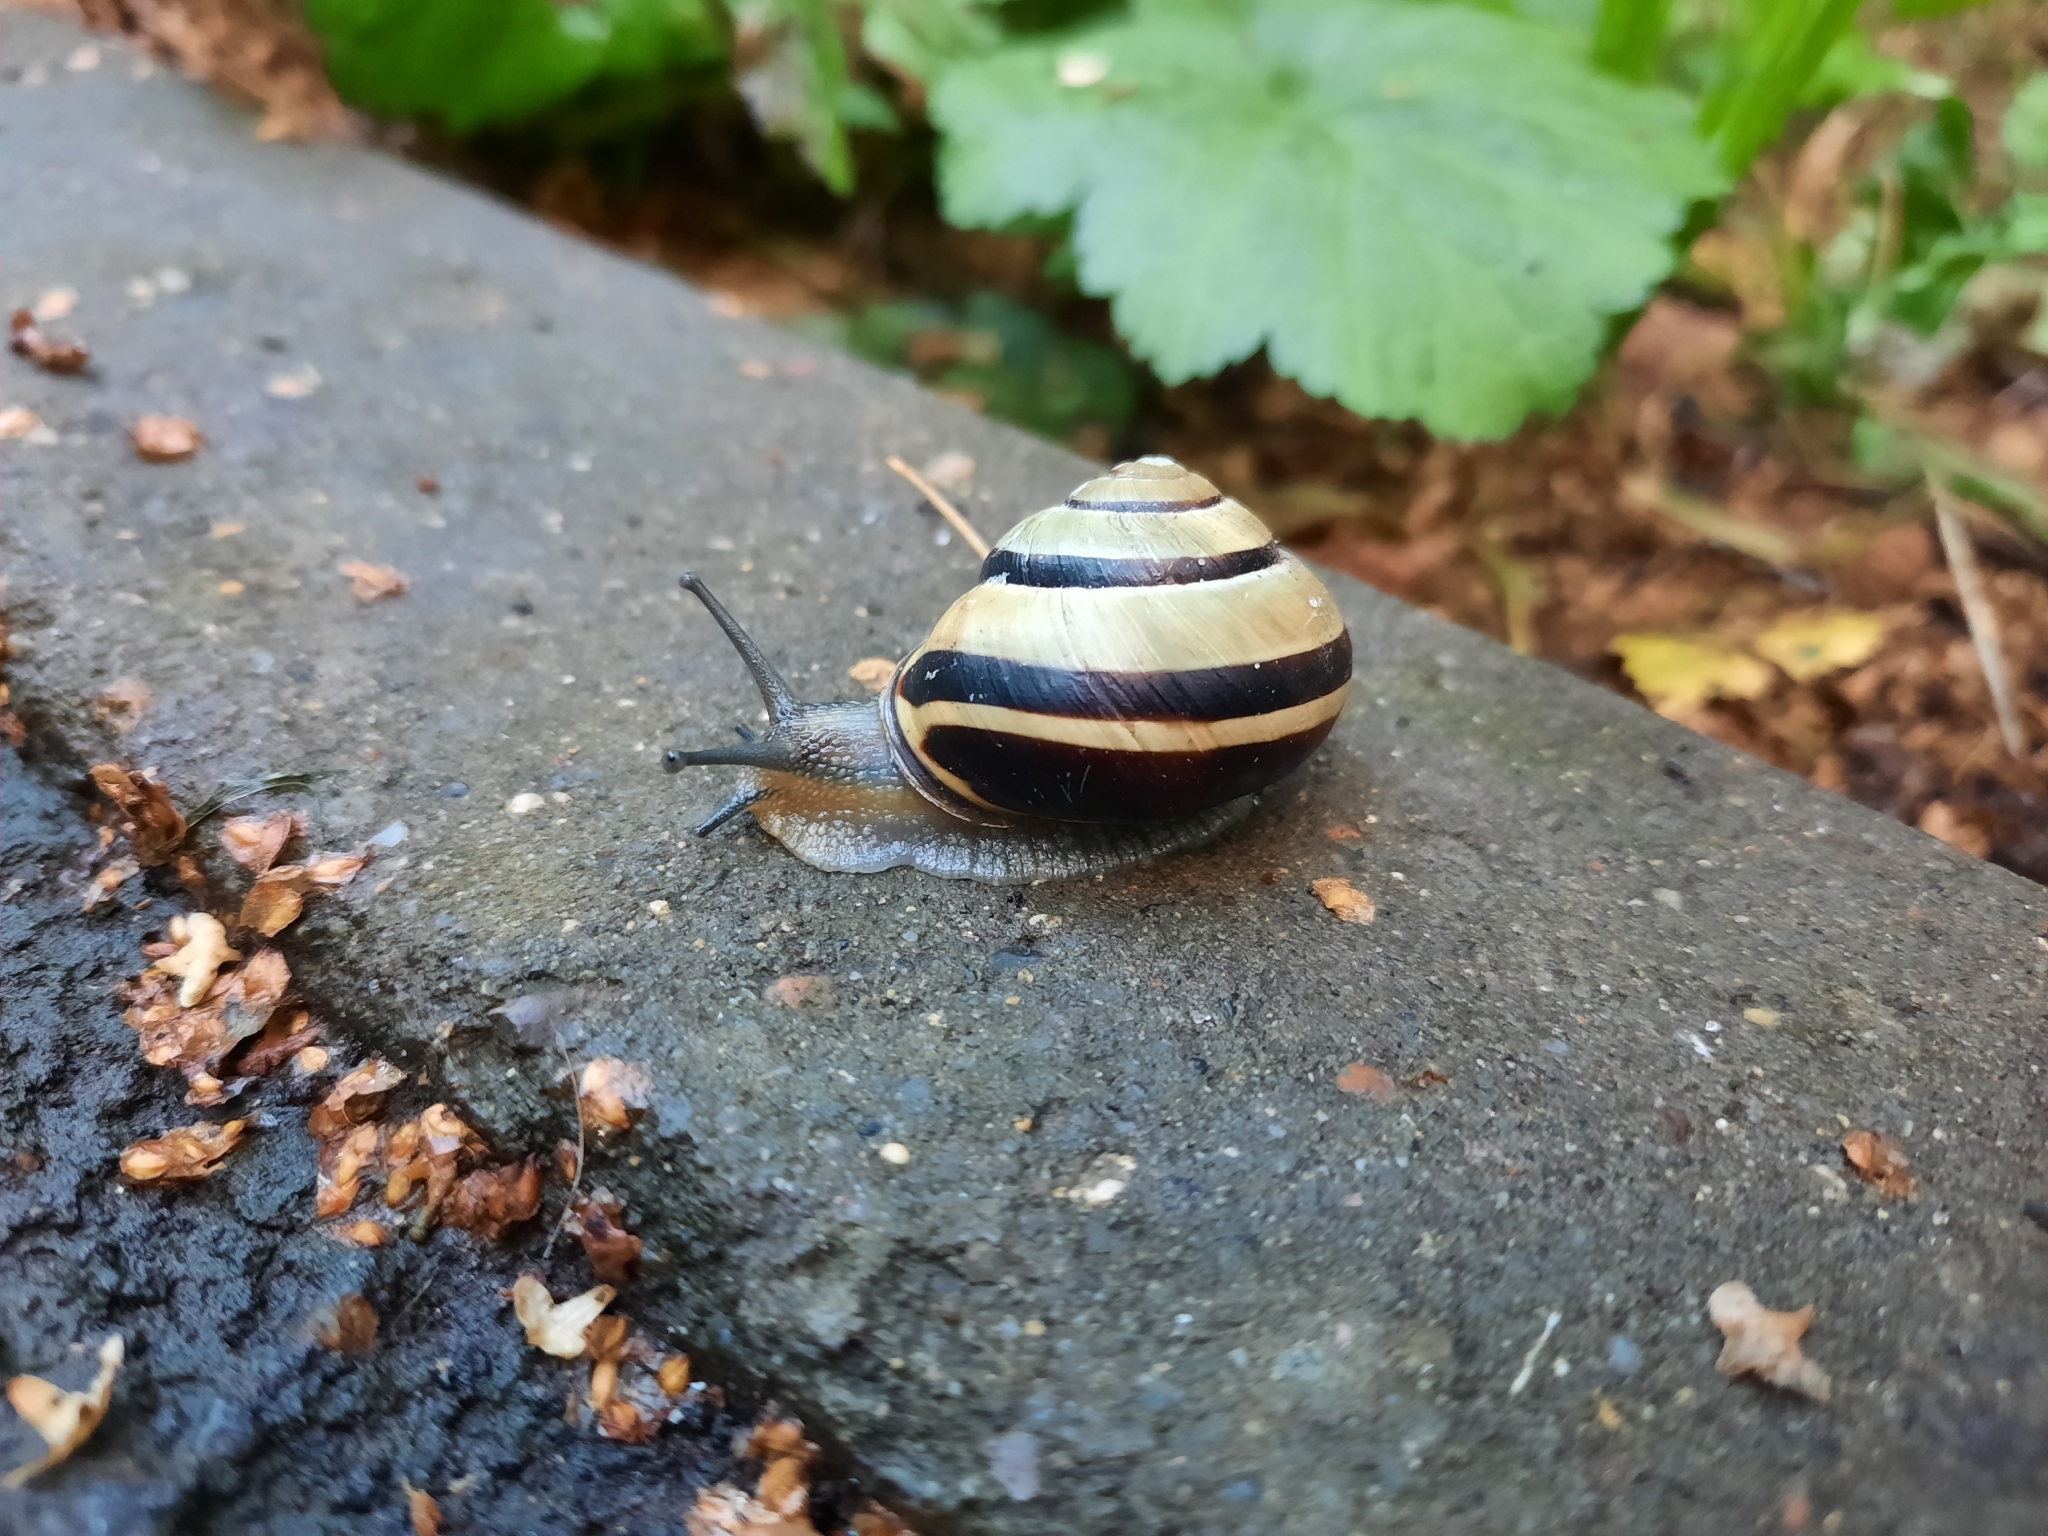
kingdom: Animalia
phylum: Mollusca
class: Gastropoda
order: Stylommatophora
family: Helicidae
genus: Cepaea
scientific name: Cepaea nemoralis
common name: Grovesnail
